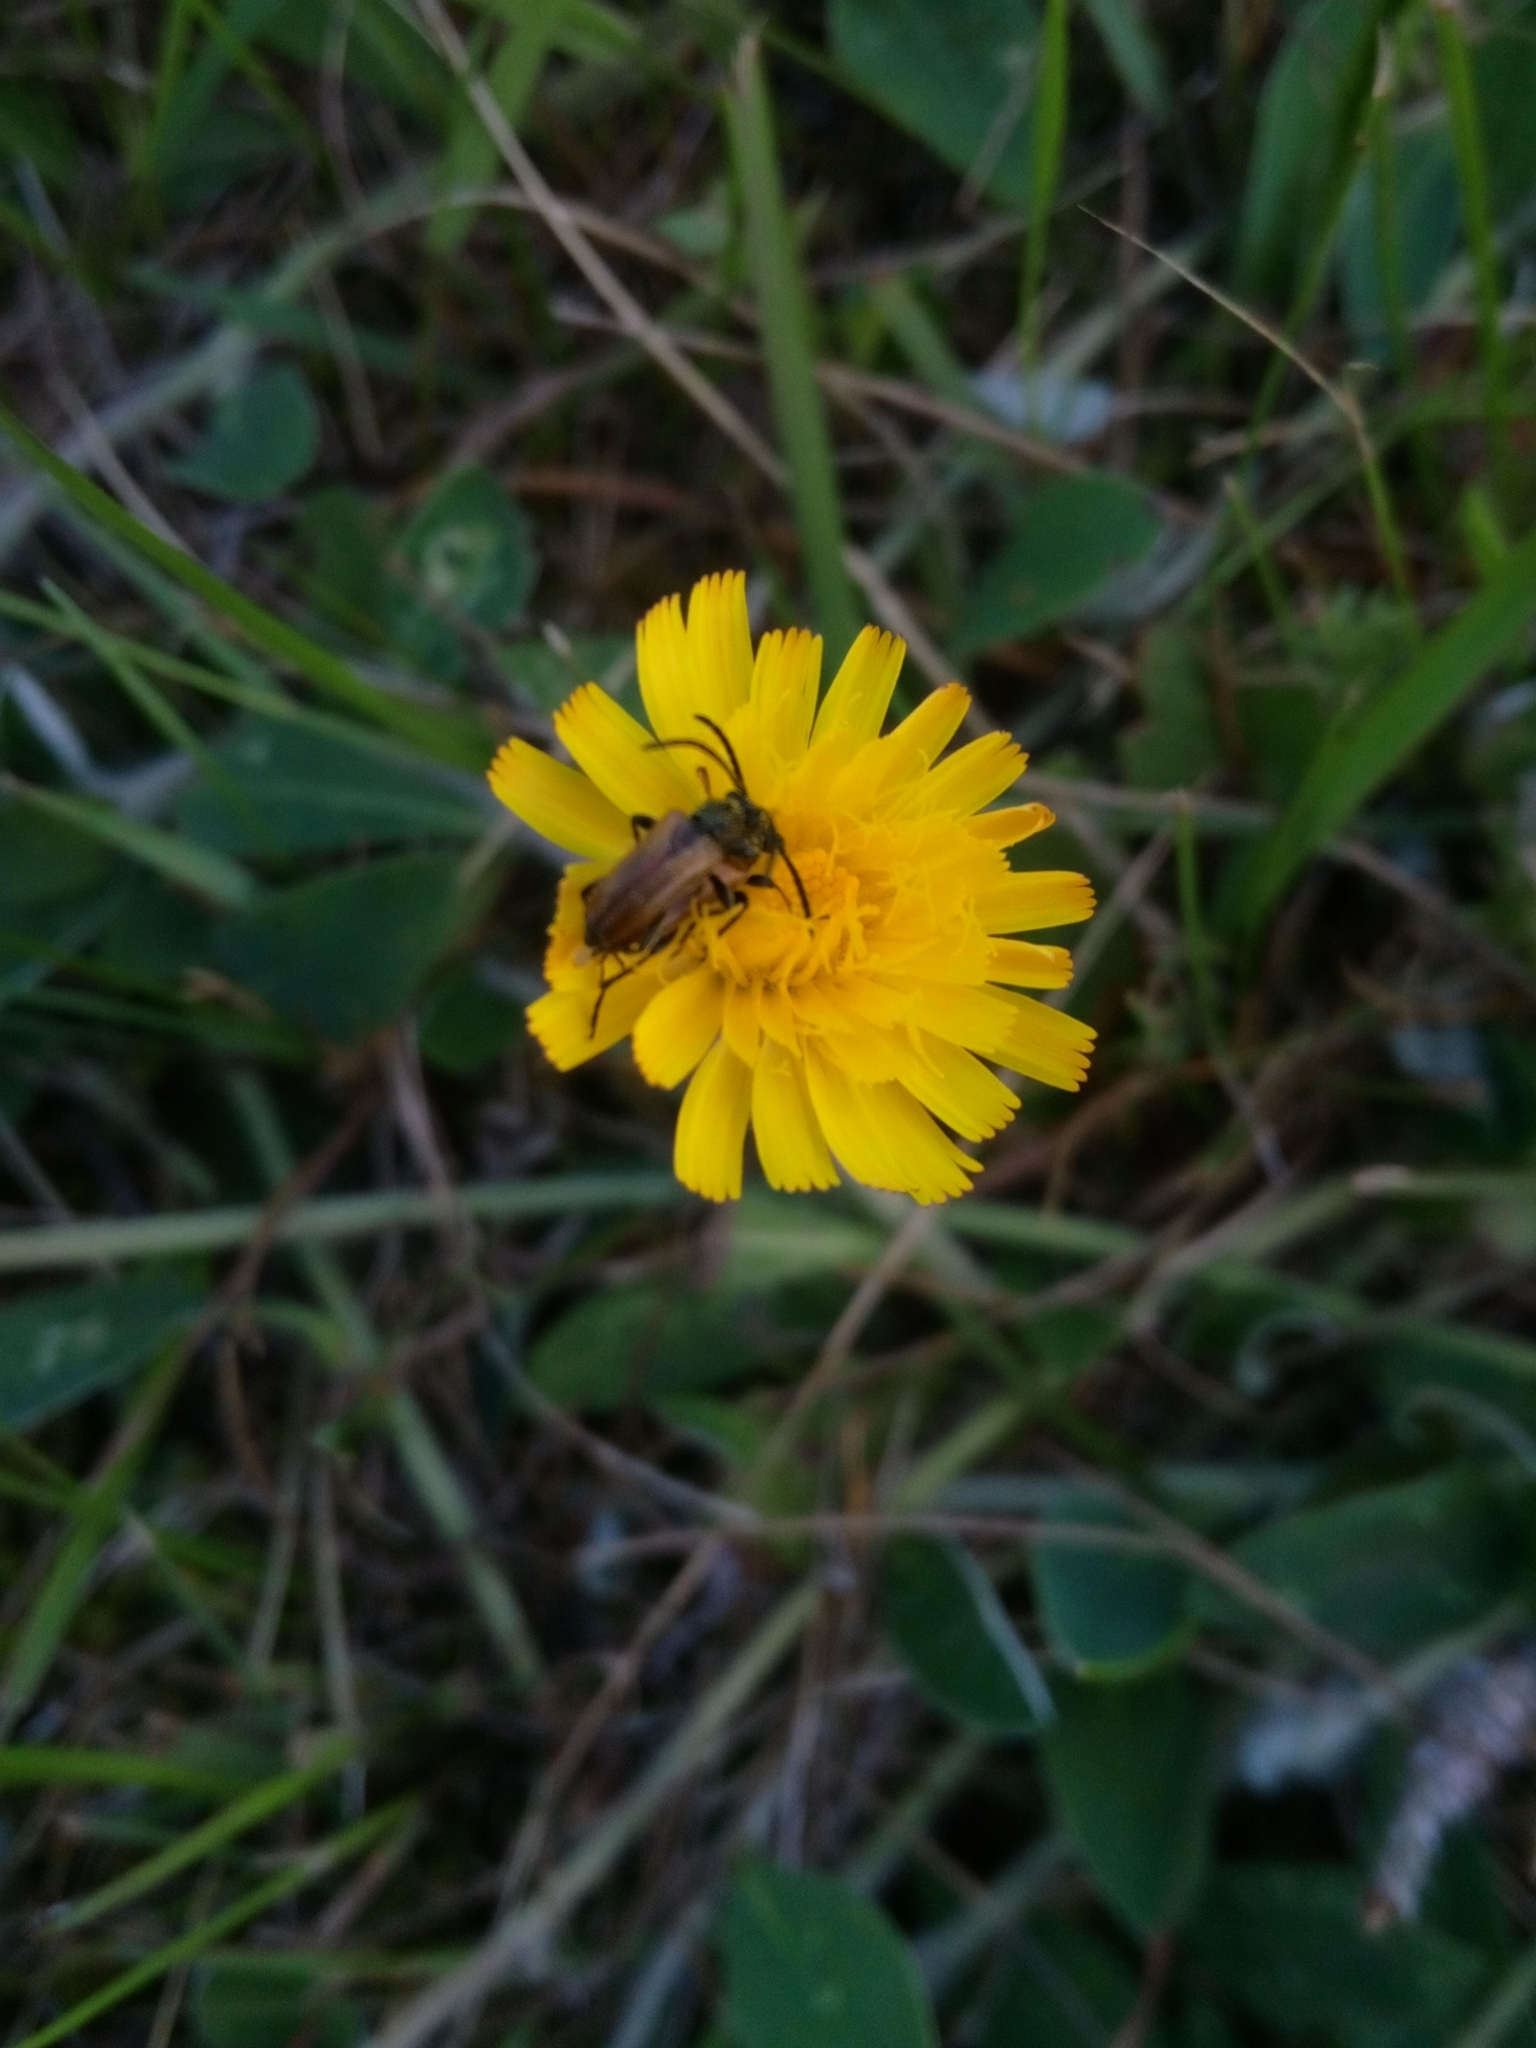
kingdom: Animalia
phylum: Arthropoda
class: Insecta
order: Coleoptera
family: Cerambycidae
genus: Pseudovadonia
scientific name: Pseudovadonia livida
